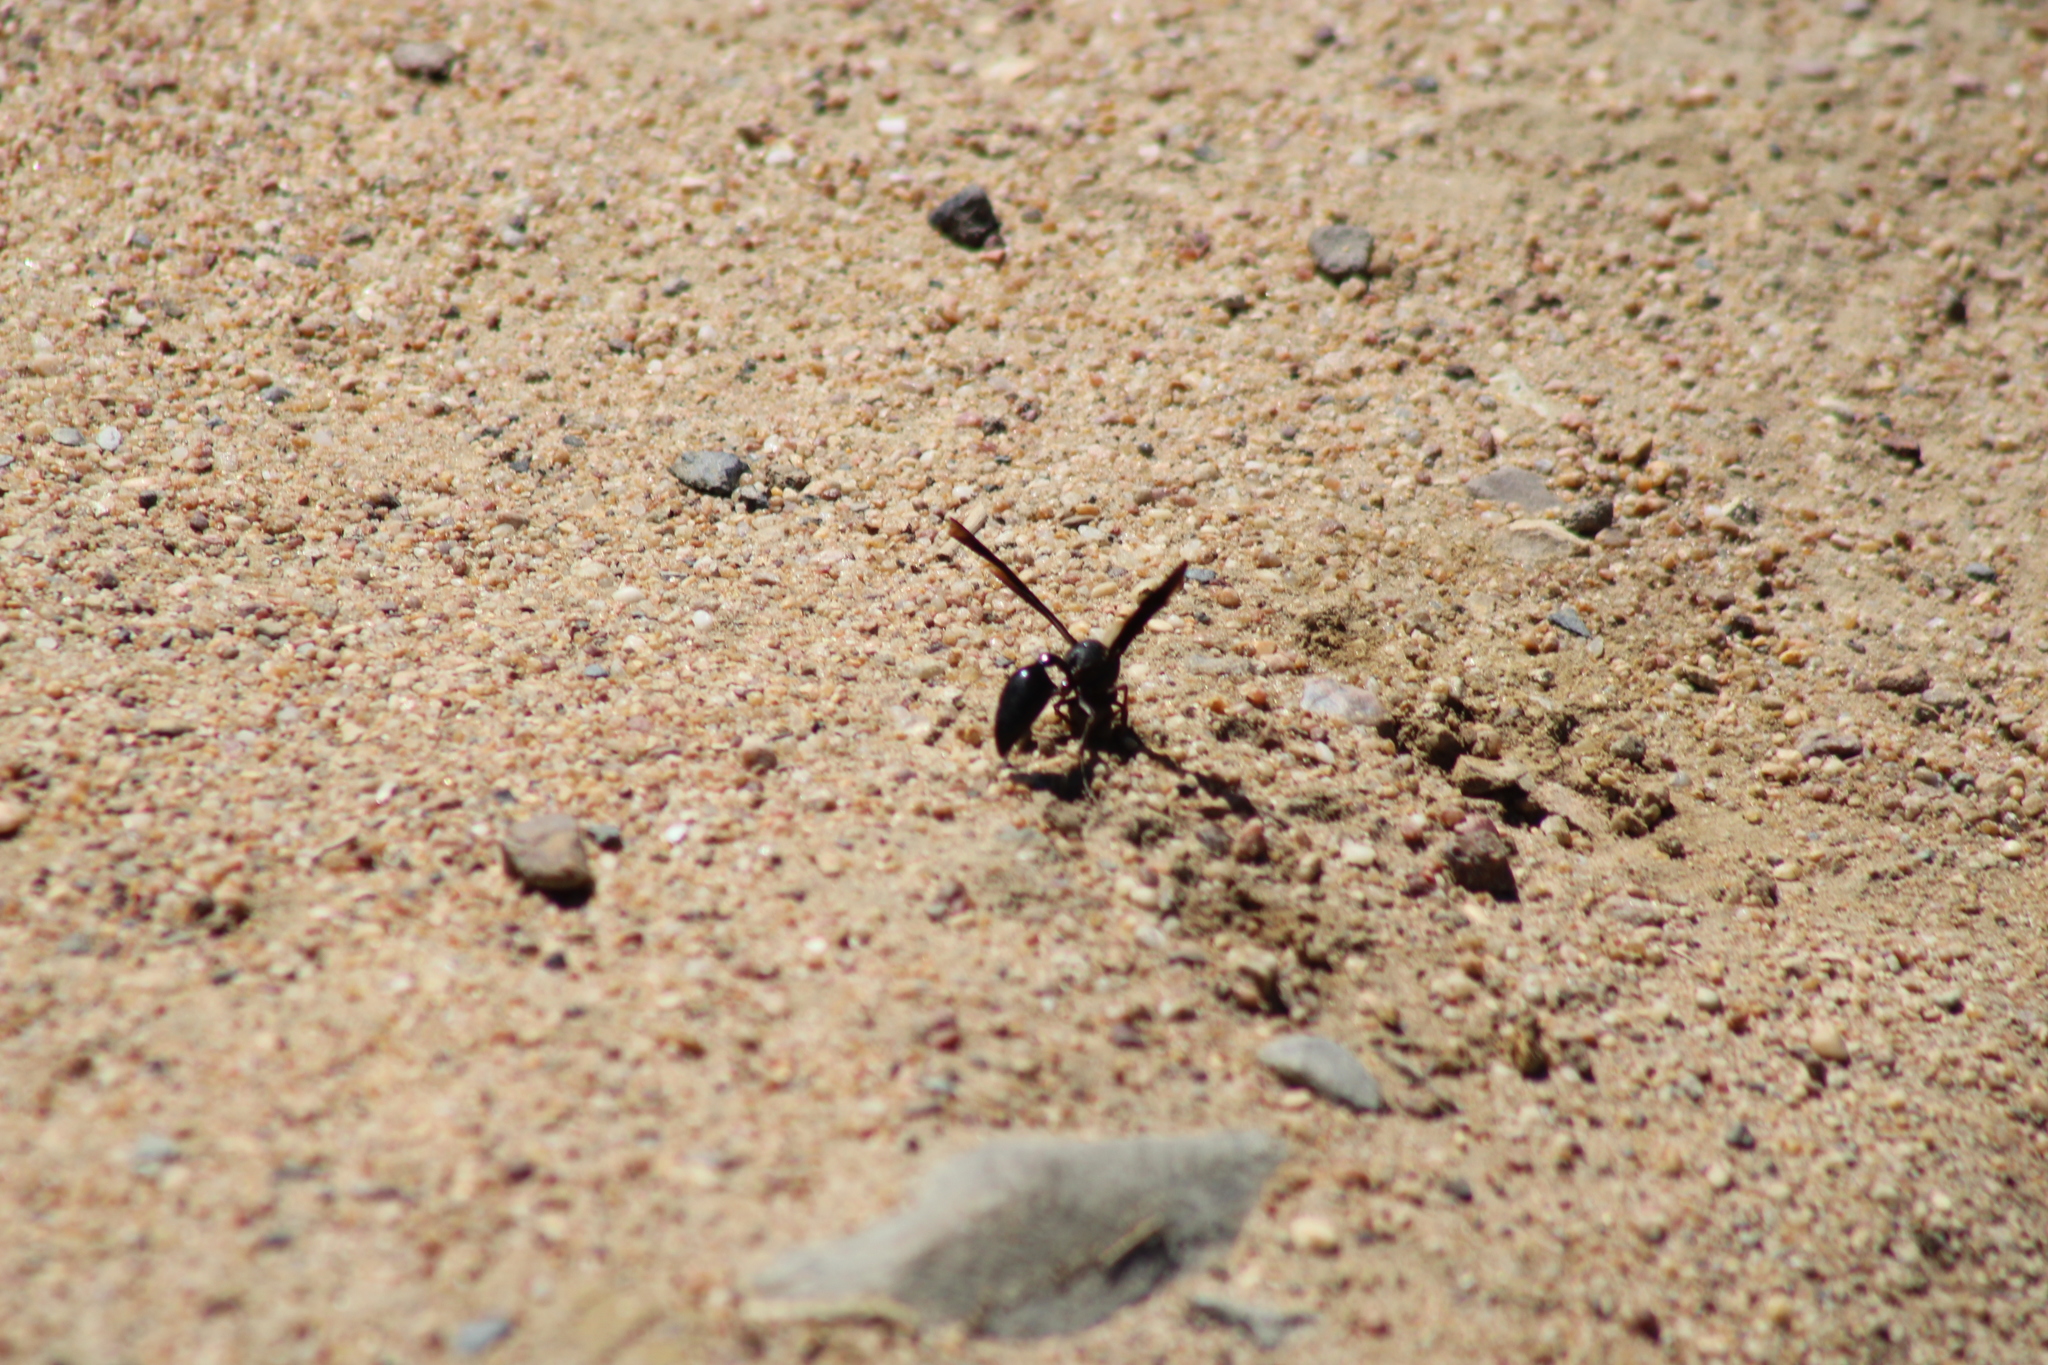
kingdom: Animalia
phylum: Arthropoda
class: Insecta
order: Hymenoptera
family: Eumenidae
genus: Delta
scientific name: Delta
